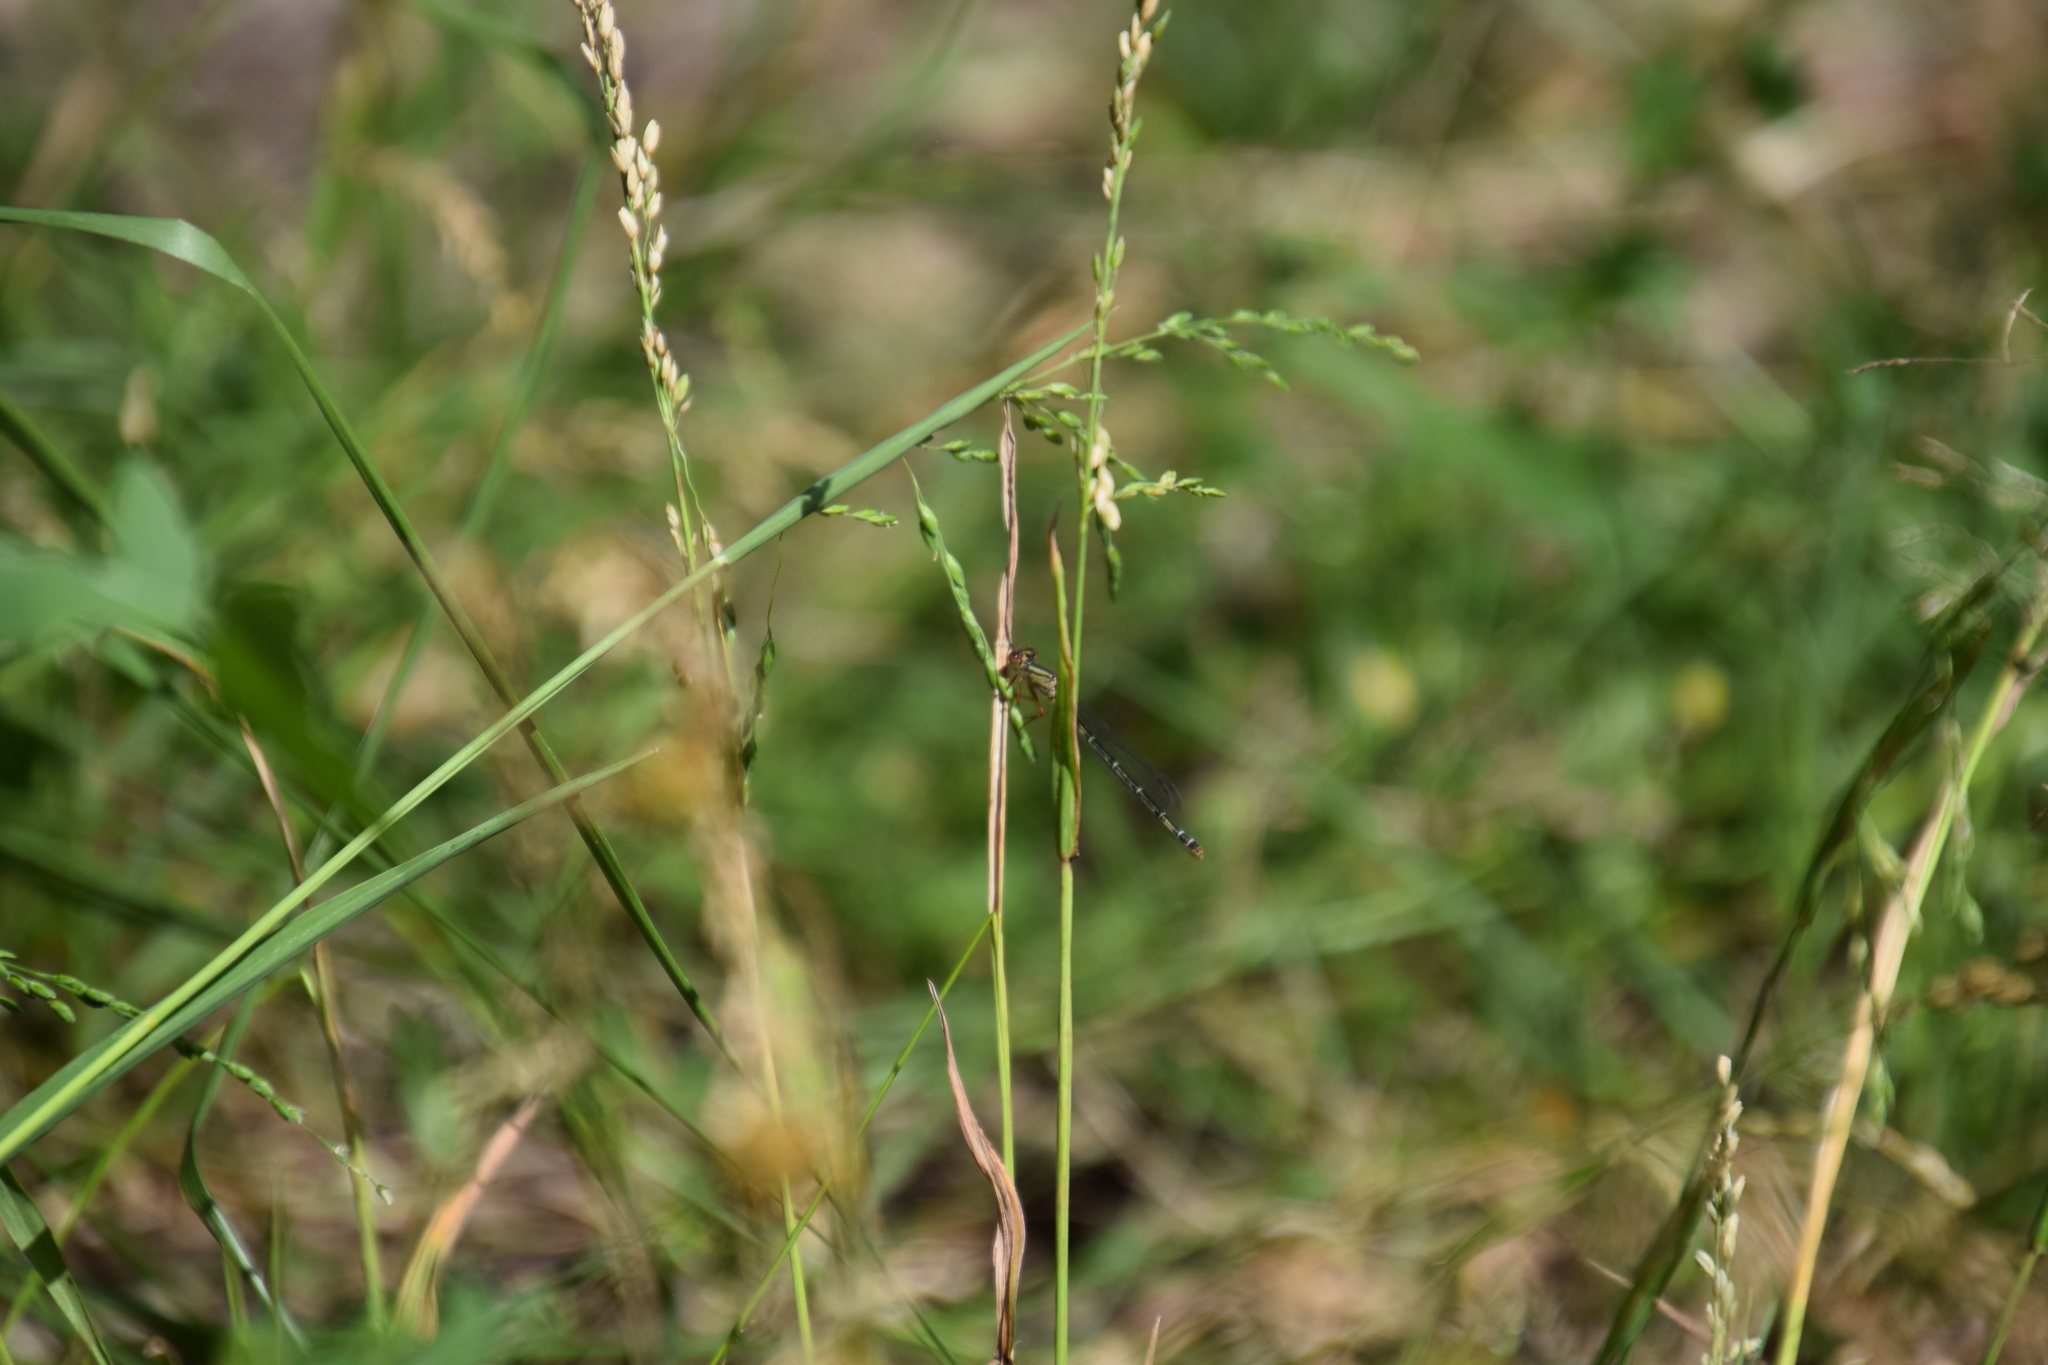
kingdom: Animalia
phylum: Arthropoda
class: Insecta
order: Odonata
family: Coenagrionidae
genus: Xanthagrion
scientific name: Xanthagrion erythroneurum
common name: Red and blue damsel
